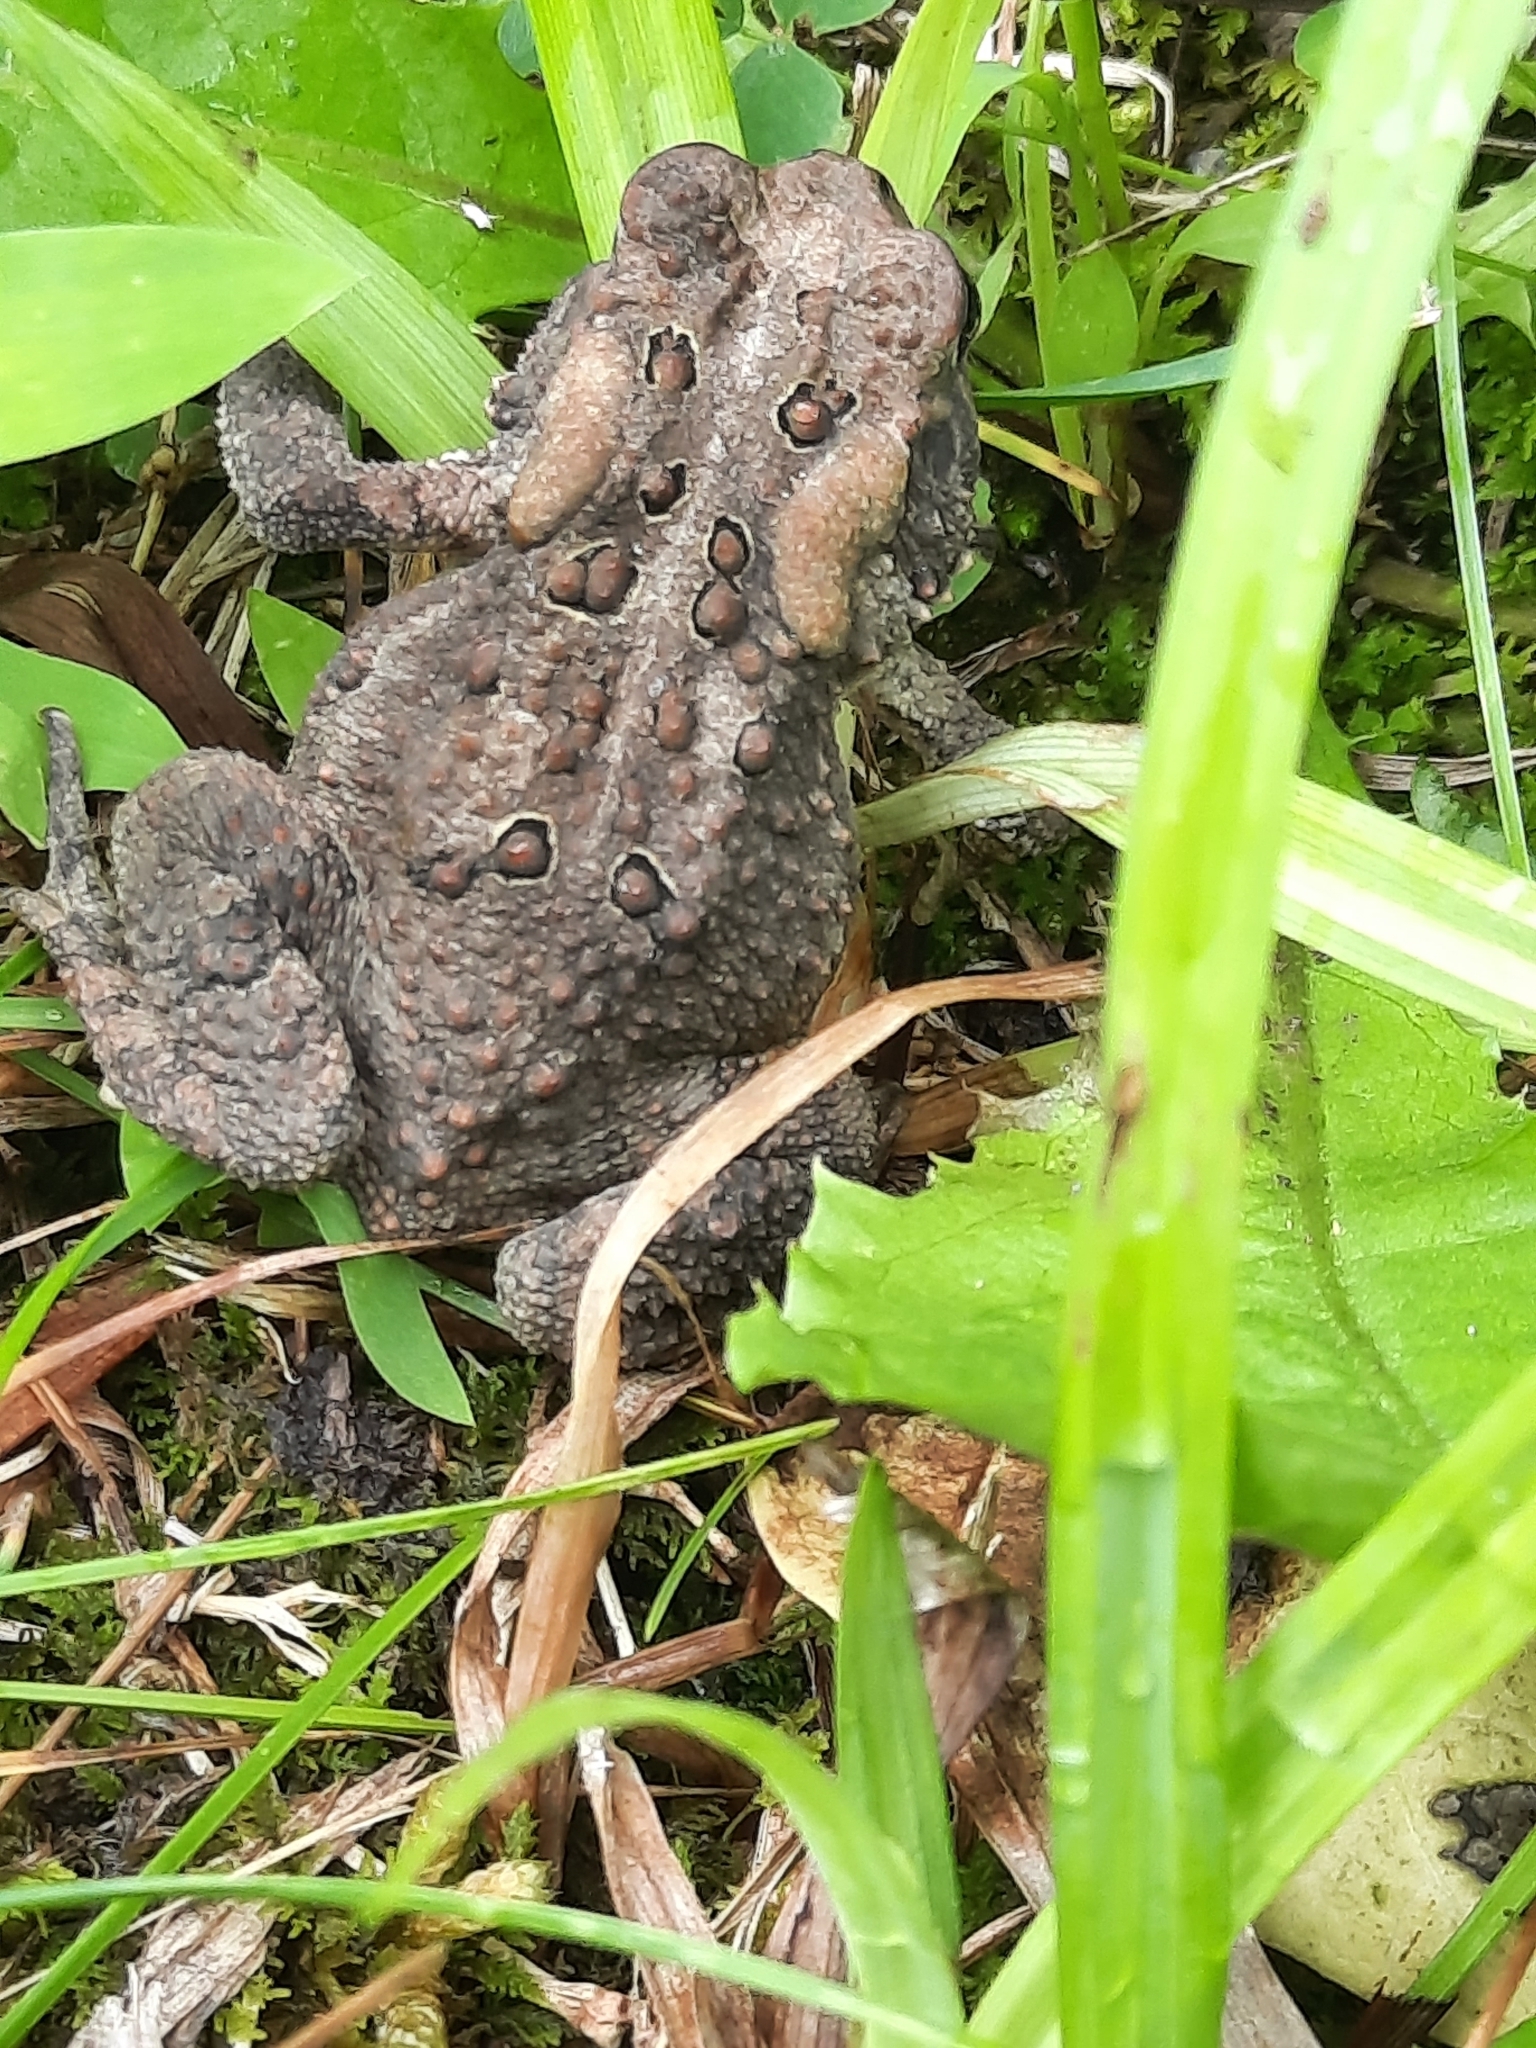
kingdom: Animalia
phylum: Chordata
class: Amphibia
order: Anura
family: Bufonidae
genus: Anaxyrus
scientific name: Anaxyrus americanus
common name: American toad
